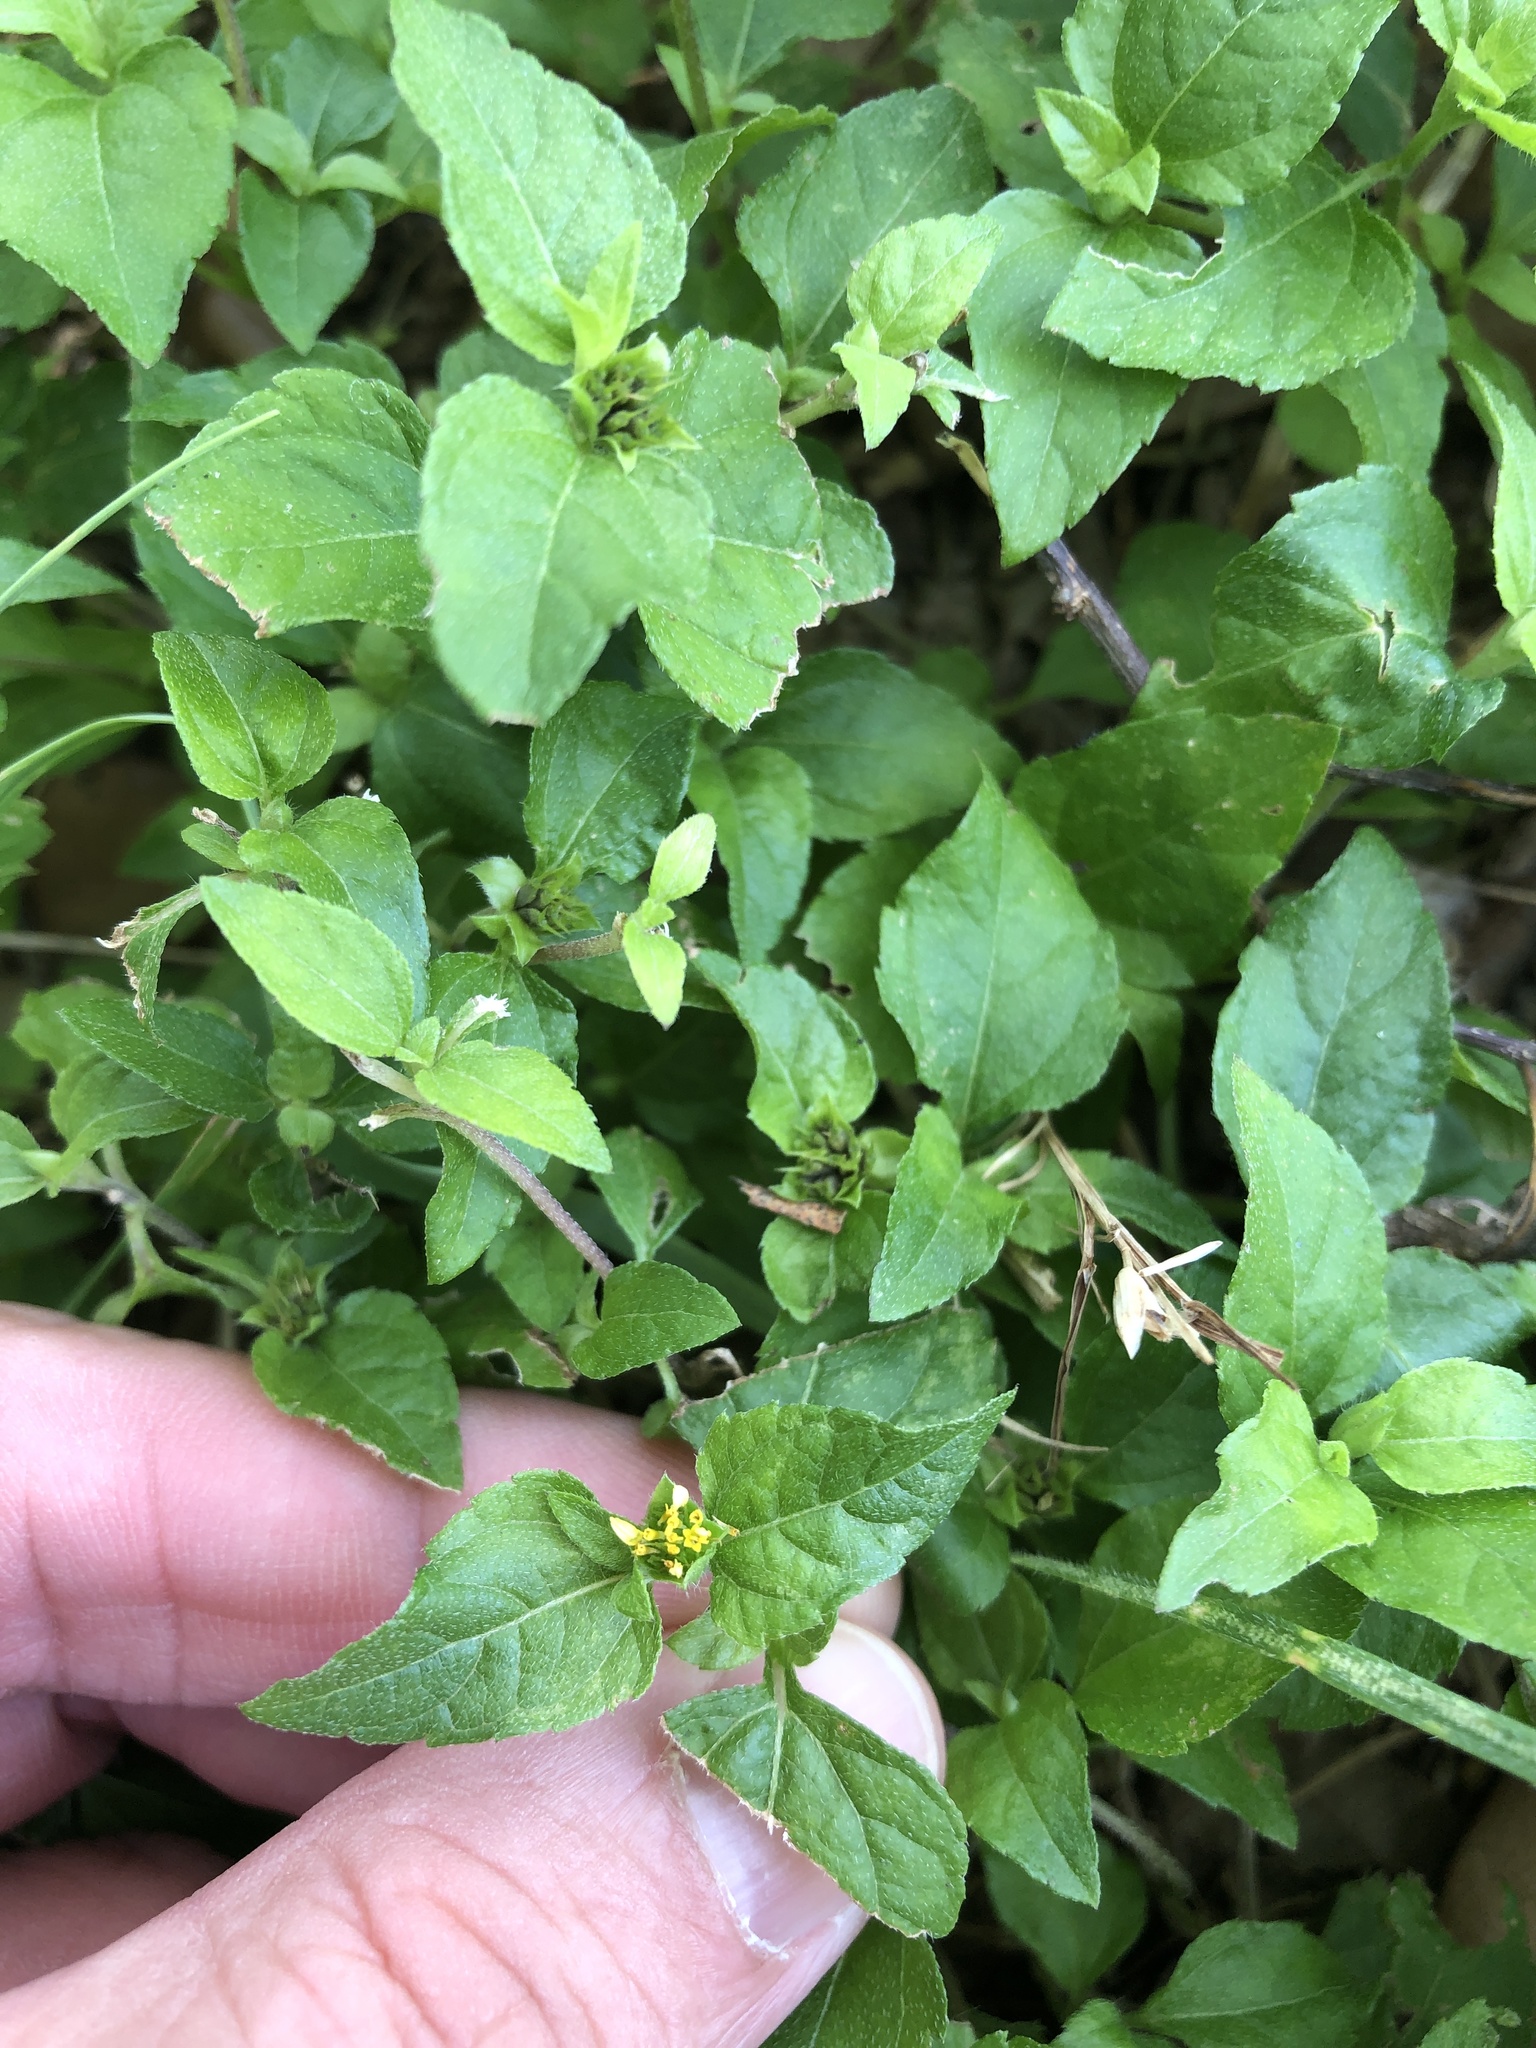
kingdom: Plantae
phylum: Tracheophyta
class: Magnoliopsida
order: Asterales
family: Asteraceae
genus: Calyptocarpus
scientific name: Calyptocarpus vialis
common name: Straggler daisy
